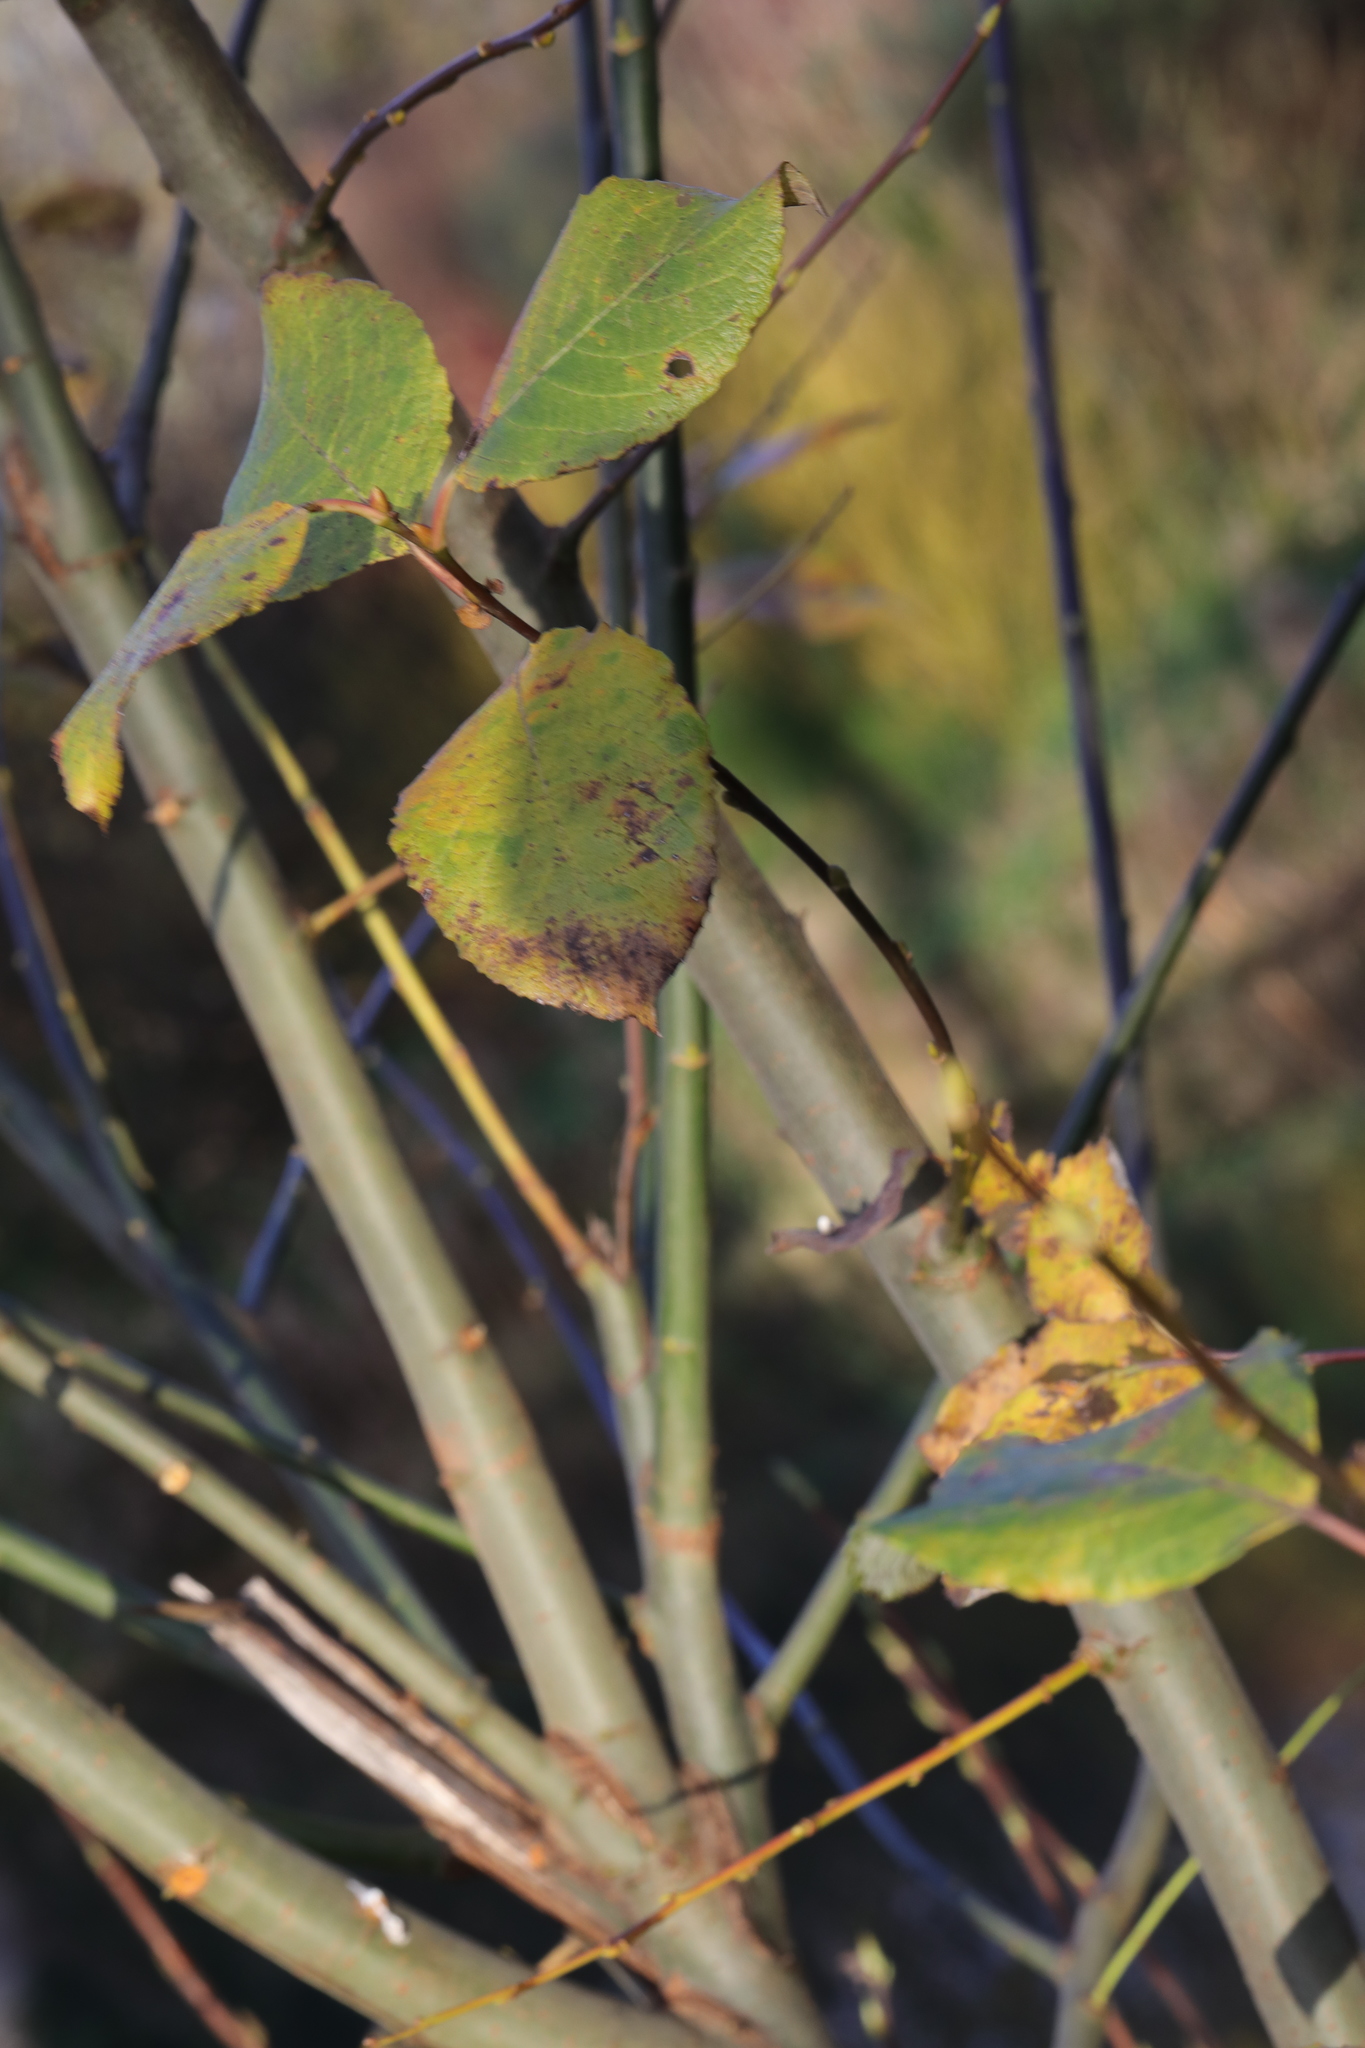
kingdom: Plantae
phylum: Tracheophyta
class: Magnoliopsida
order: Malpighiales
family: Salicaceae
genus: Salix
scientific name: Salix caprea
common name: Goat willow
